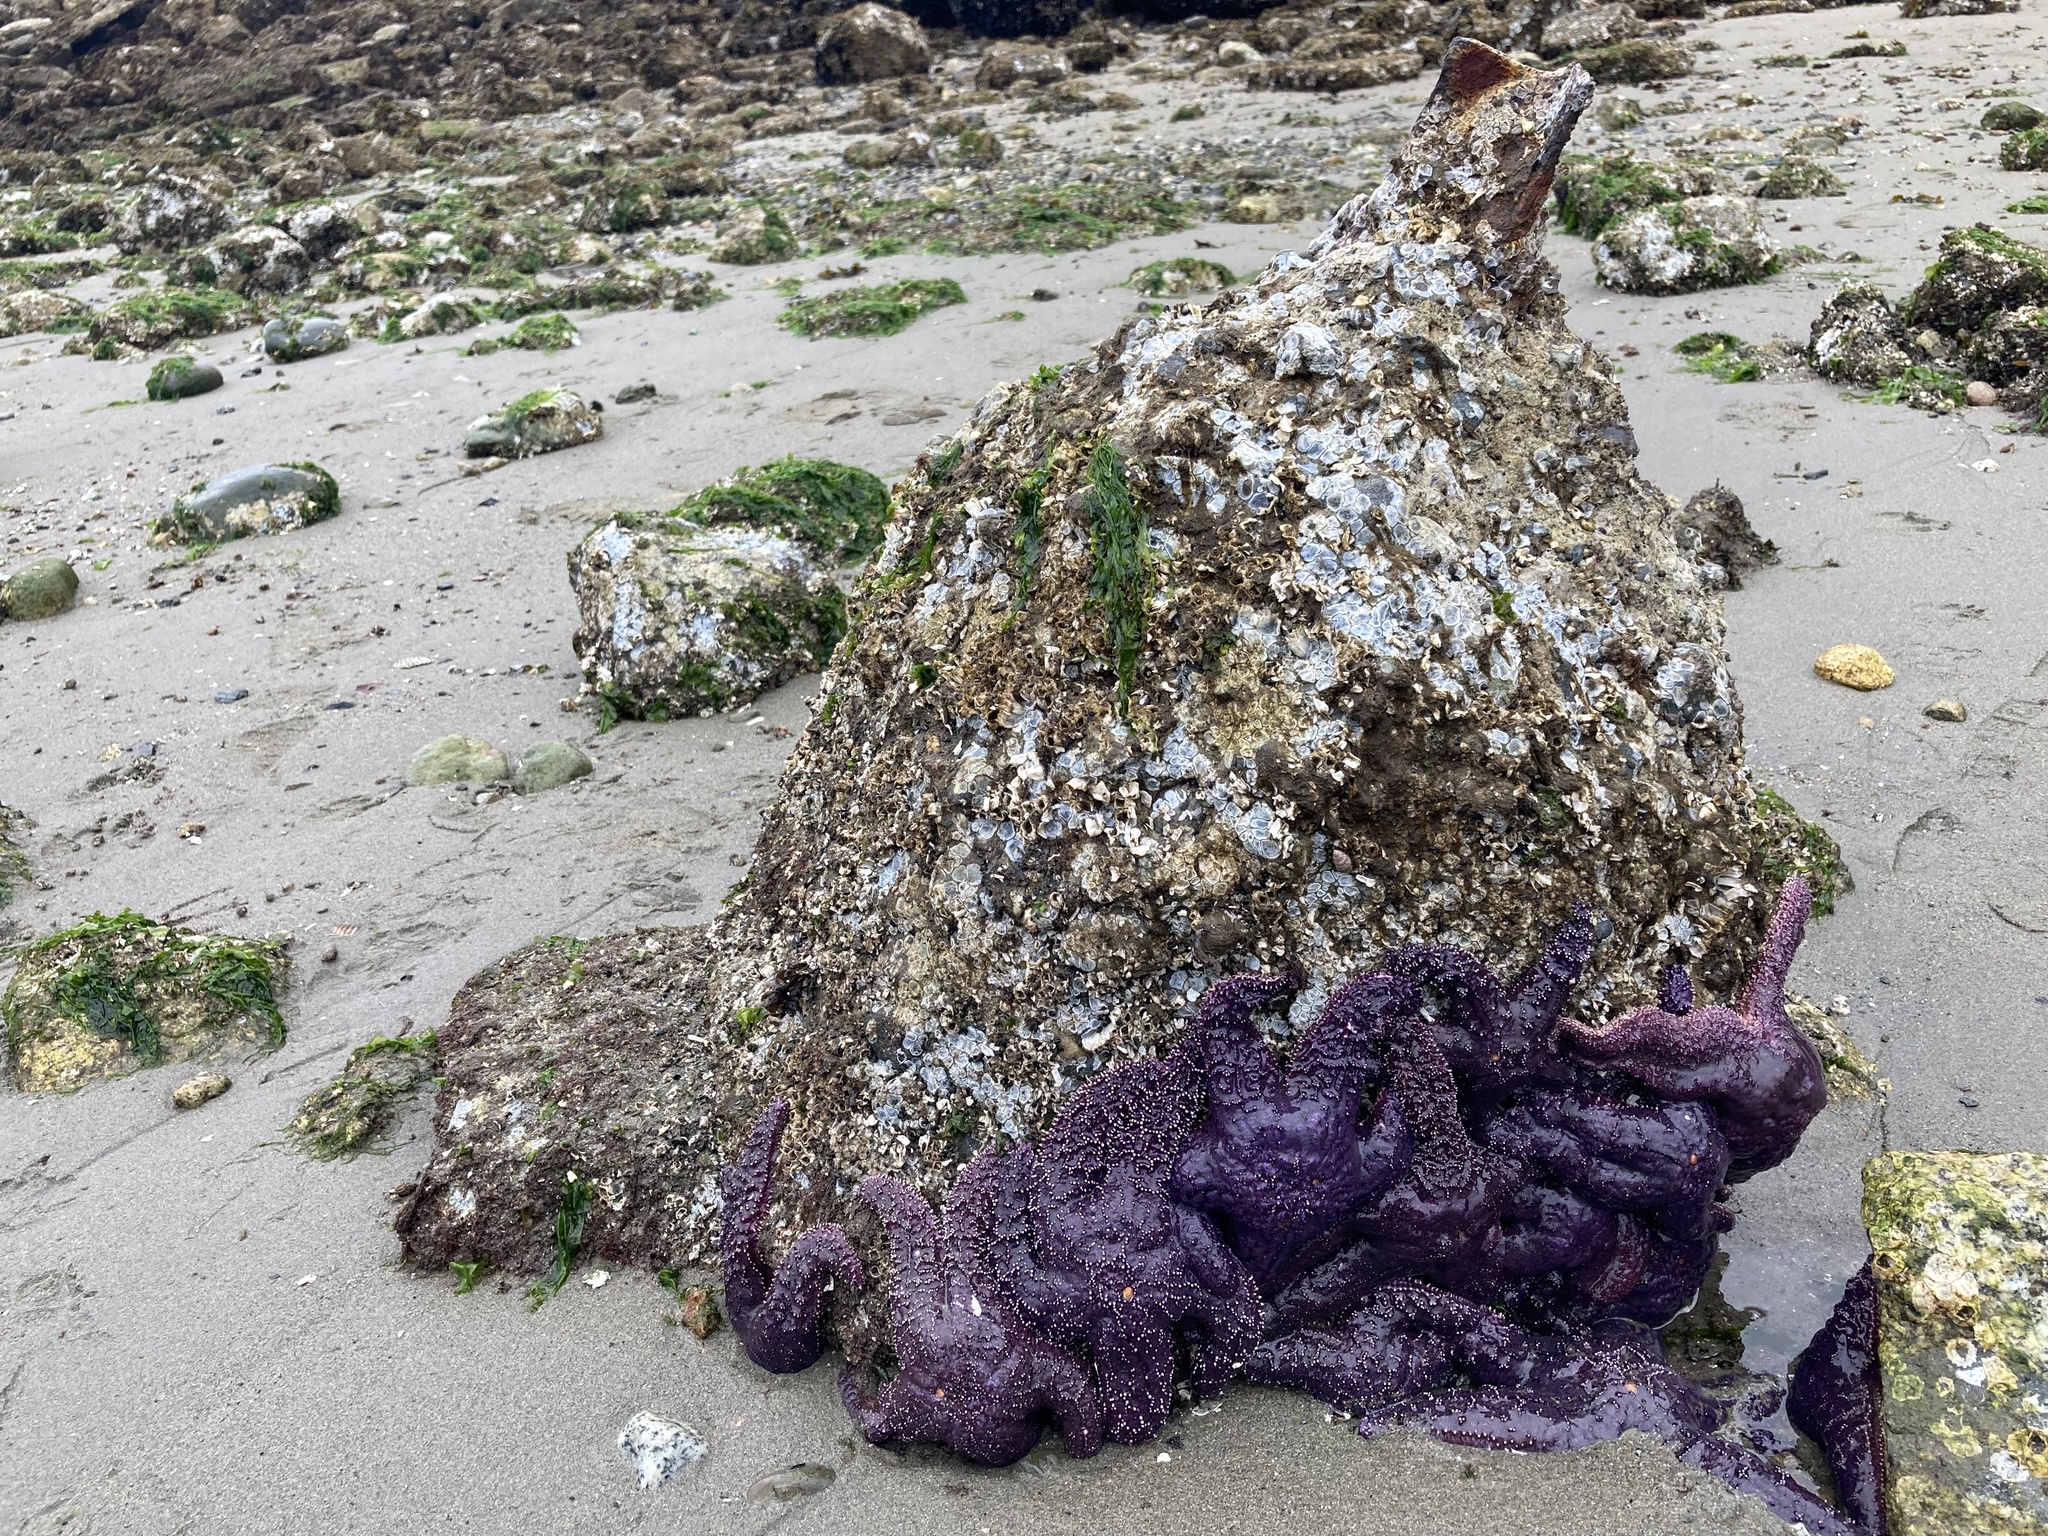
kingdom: Animalia
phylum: Echinodermata
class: Asteroidea
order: Forcipulatida
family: Asteriidae
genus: Pisaster
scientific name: Pisaster ochraceus
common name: Ochre stars
